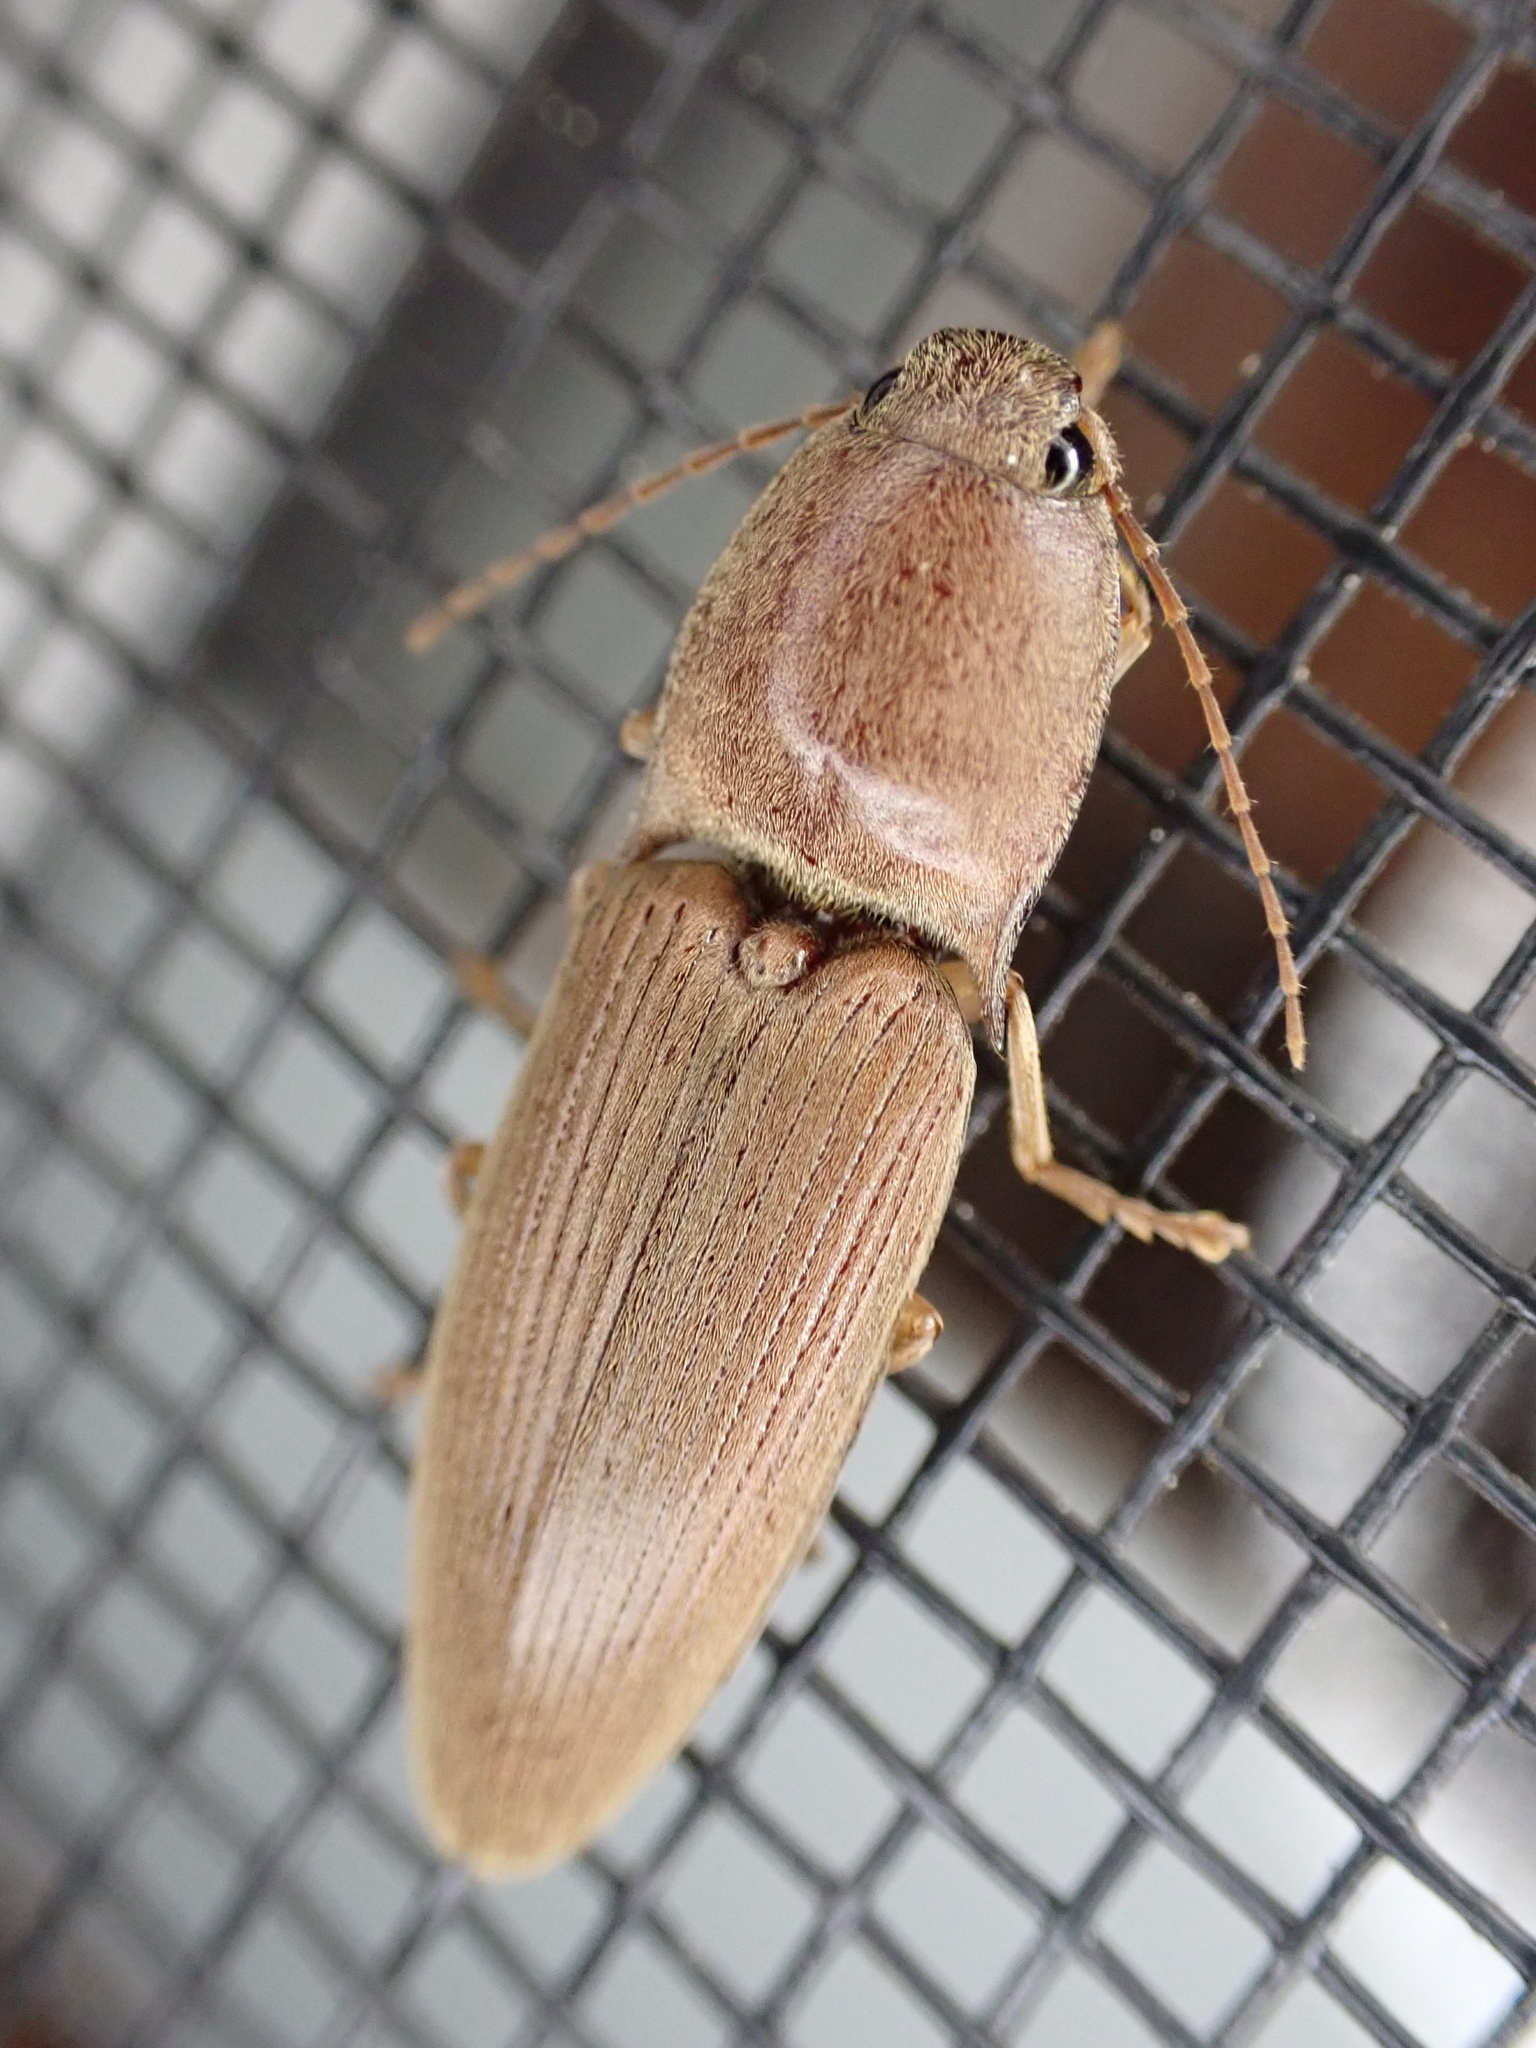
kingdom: Animalia
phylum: Arthropoda
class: Insecta
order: Coleoptera
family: Elateridae
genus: Monocrepidius
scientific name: Monocrepidius lividus
